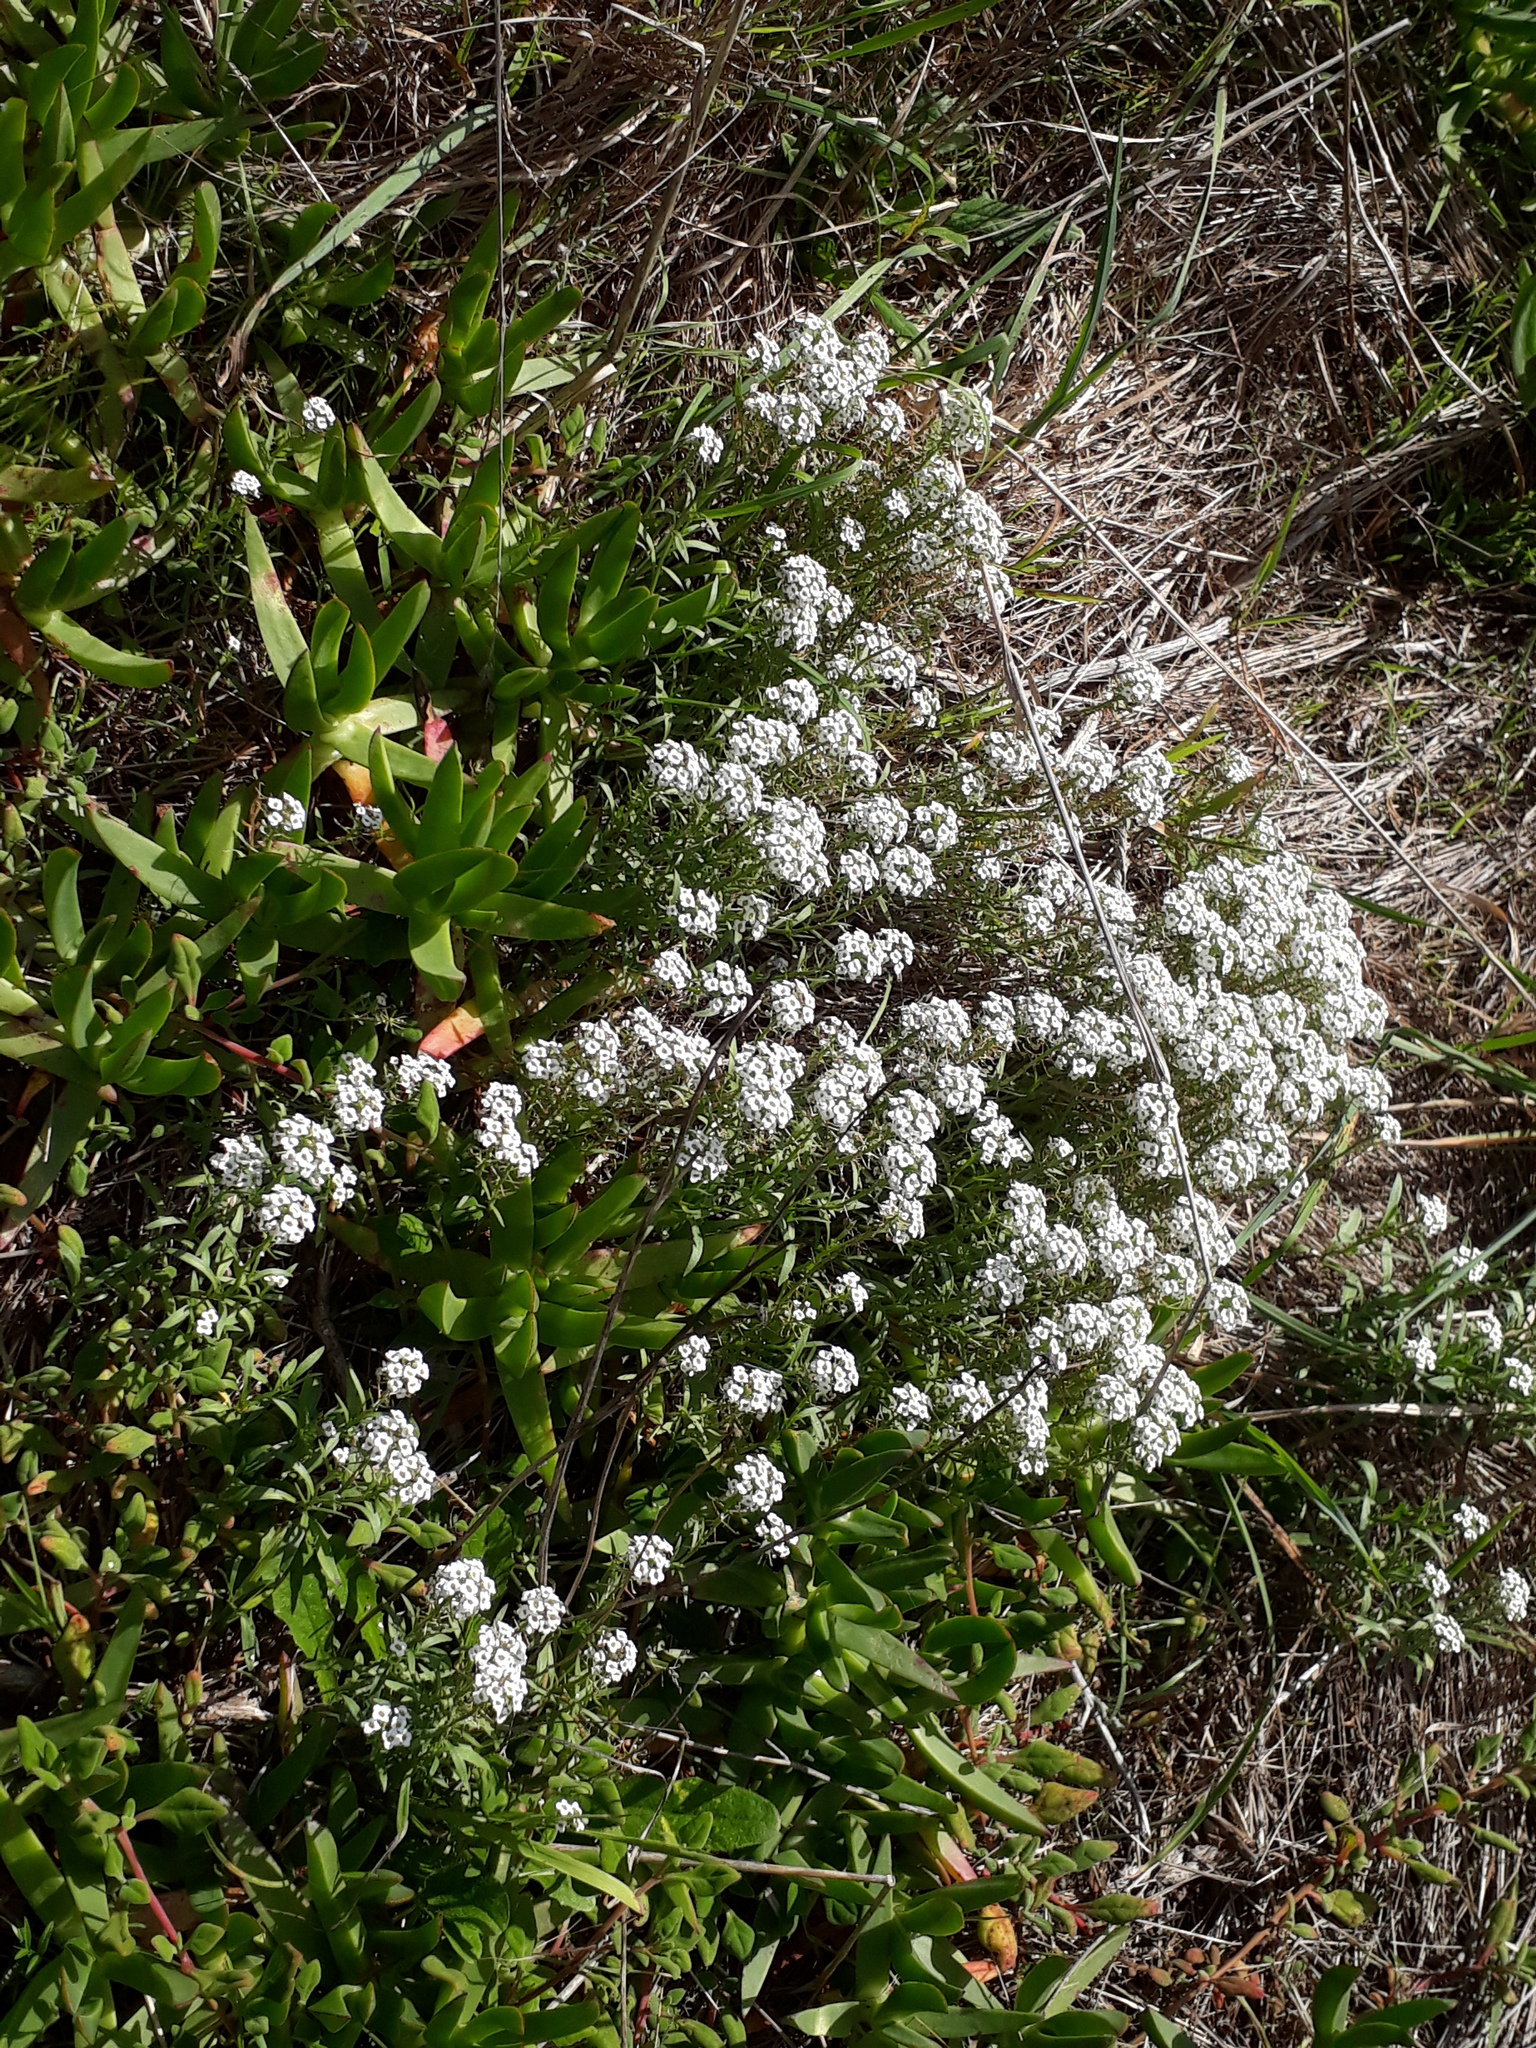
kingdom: Plantae
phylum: Tracheophyta
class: Magnoliopsida
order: Brassicales
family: Brassicaceae
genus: Lobularia
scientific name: Lobularia maritima
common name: Sweet alison
